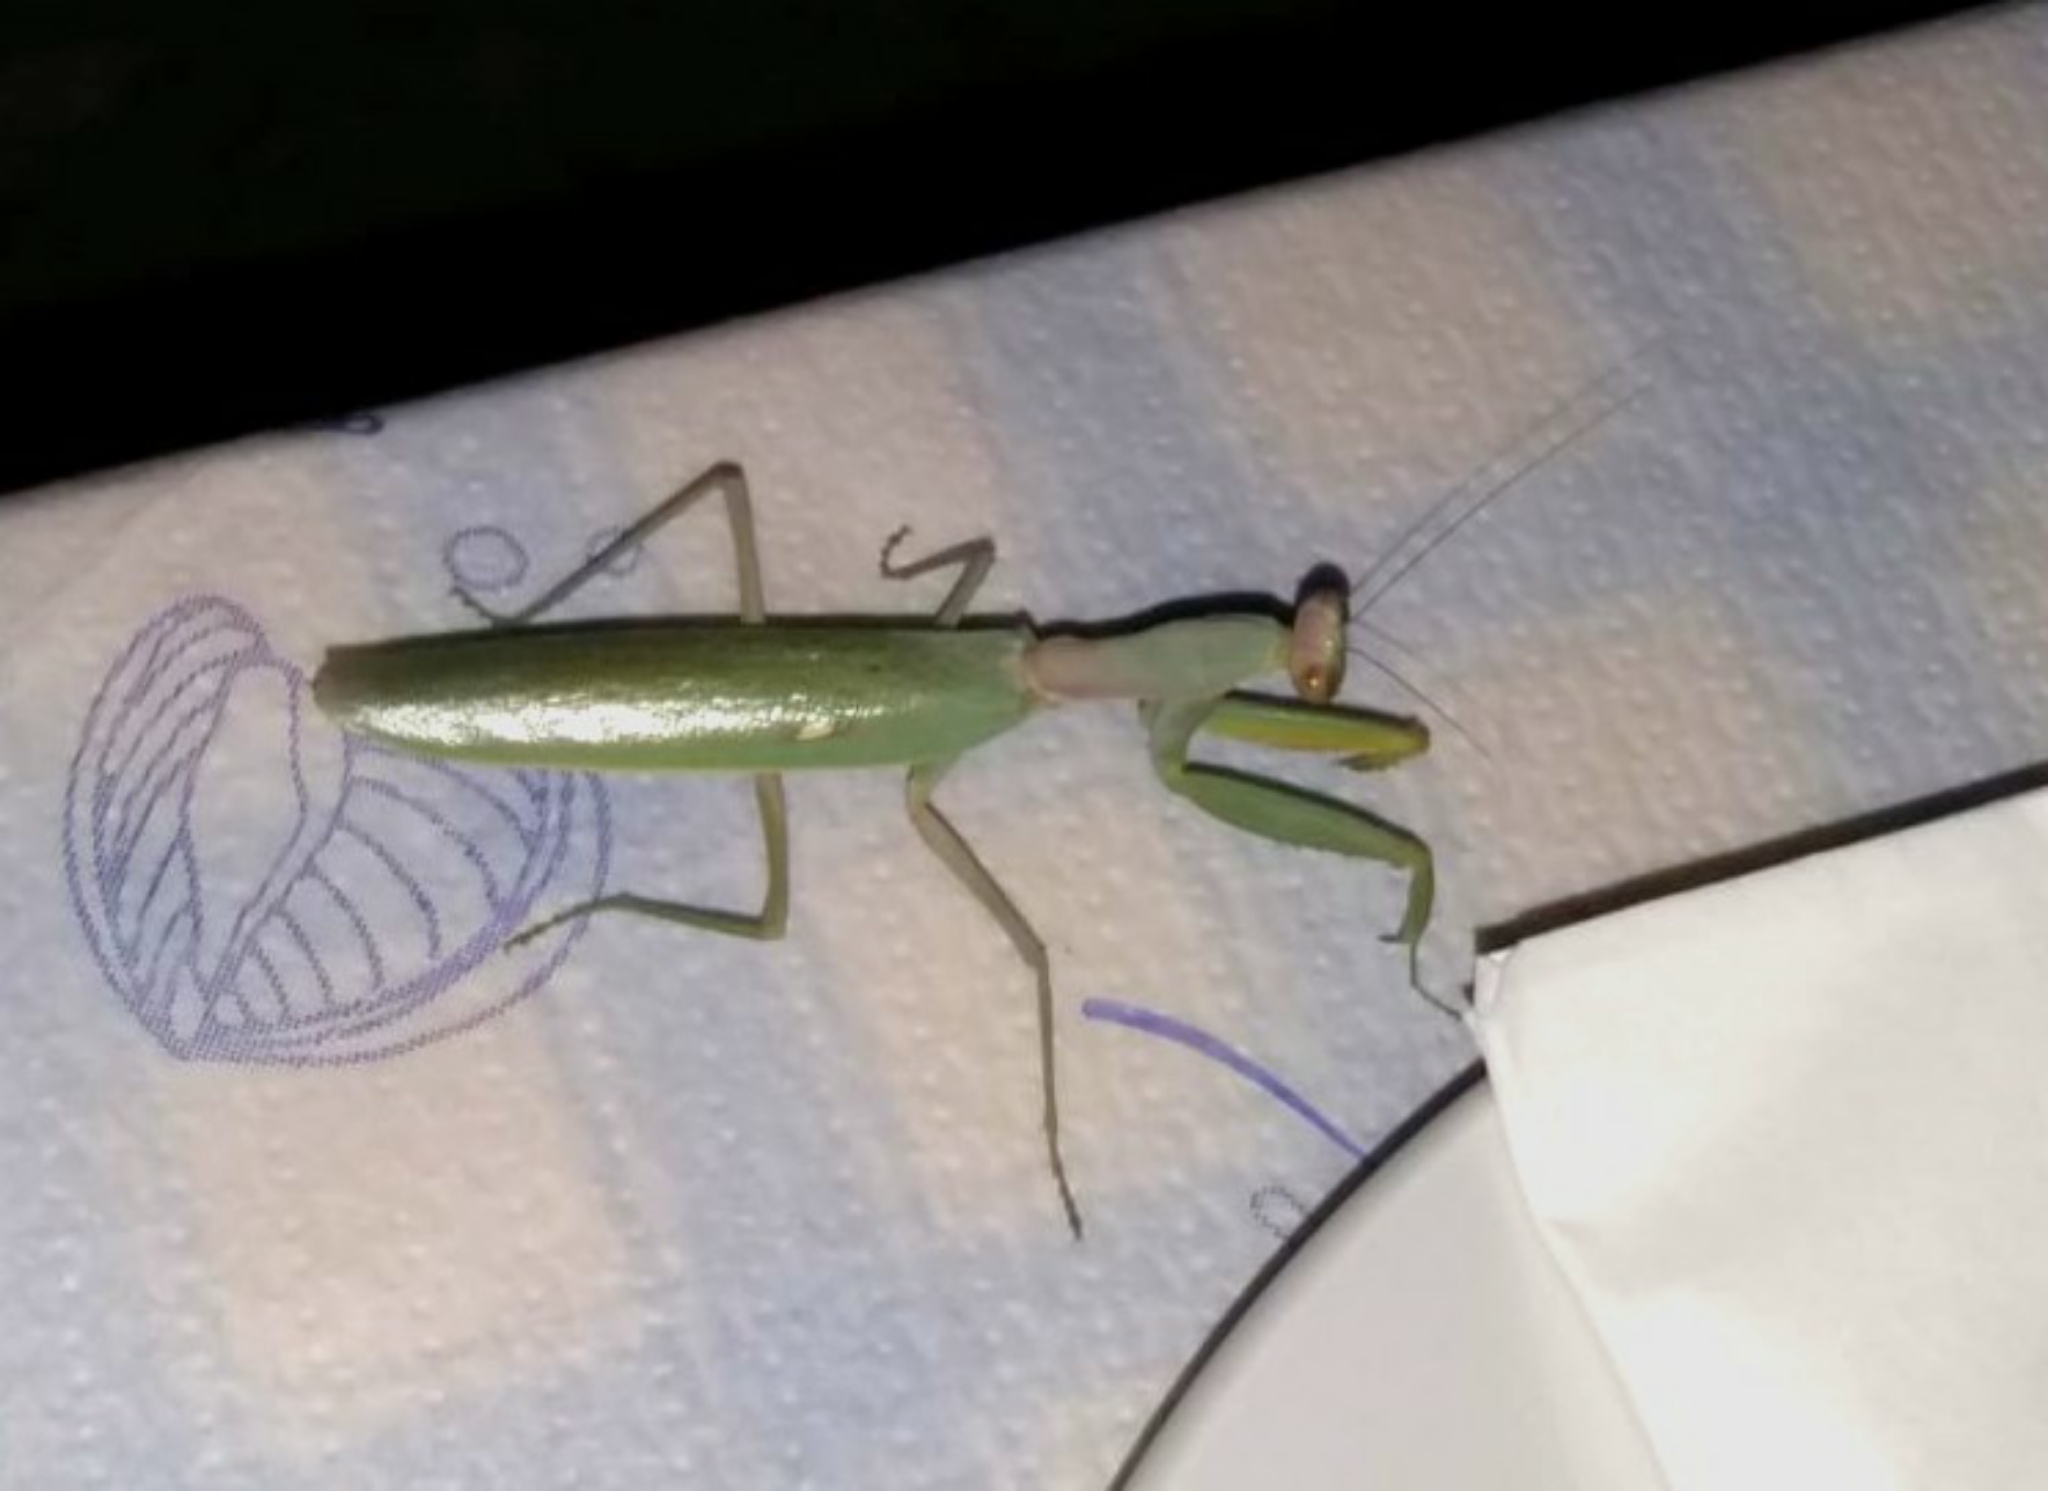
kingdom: Animalia
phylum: Arthropoda
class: Insecta
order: Mantodea
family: Mantidae
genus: Hierodula
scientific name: Hierodula transcaucasica
